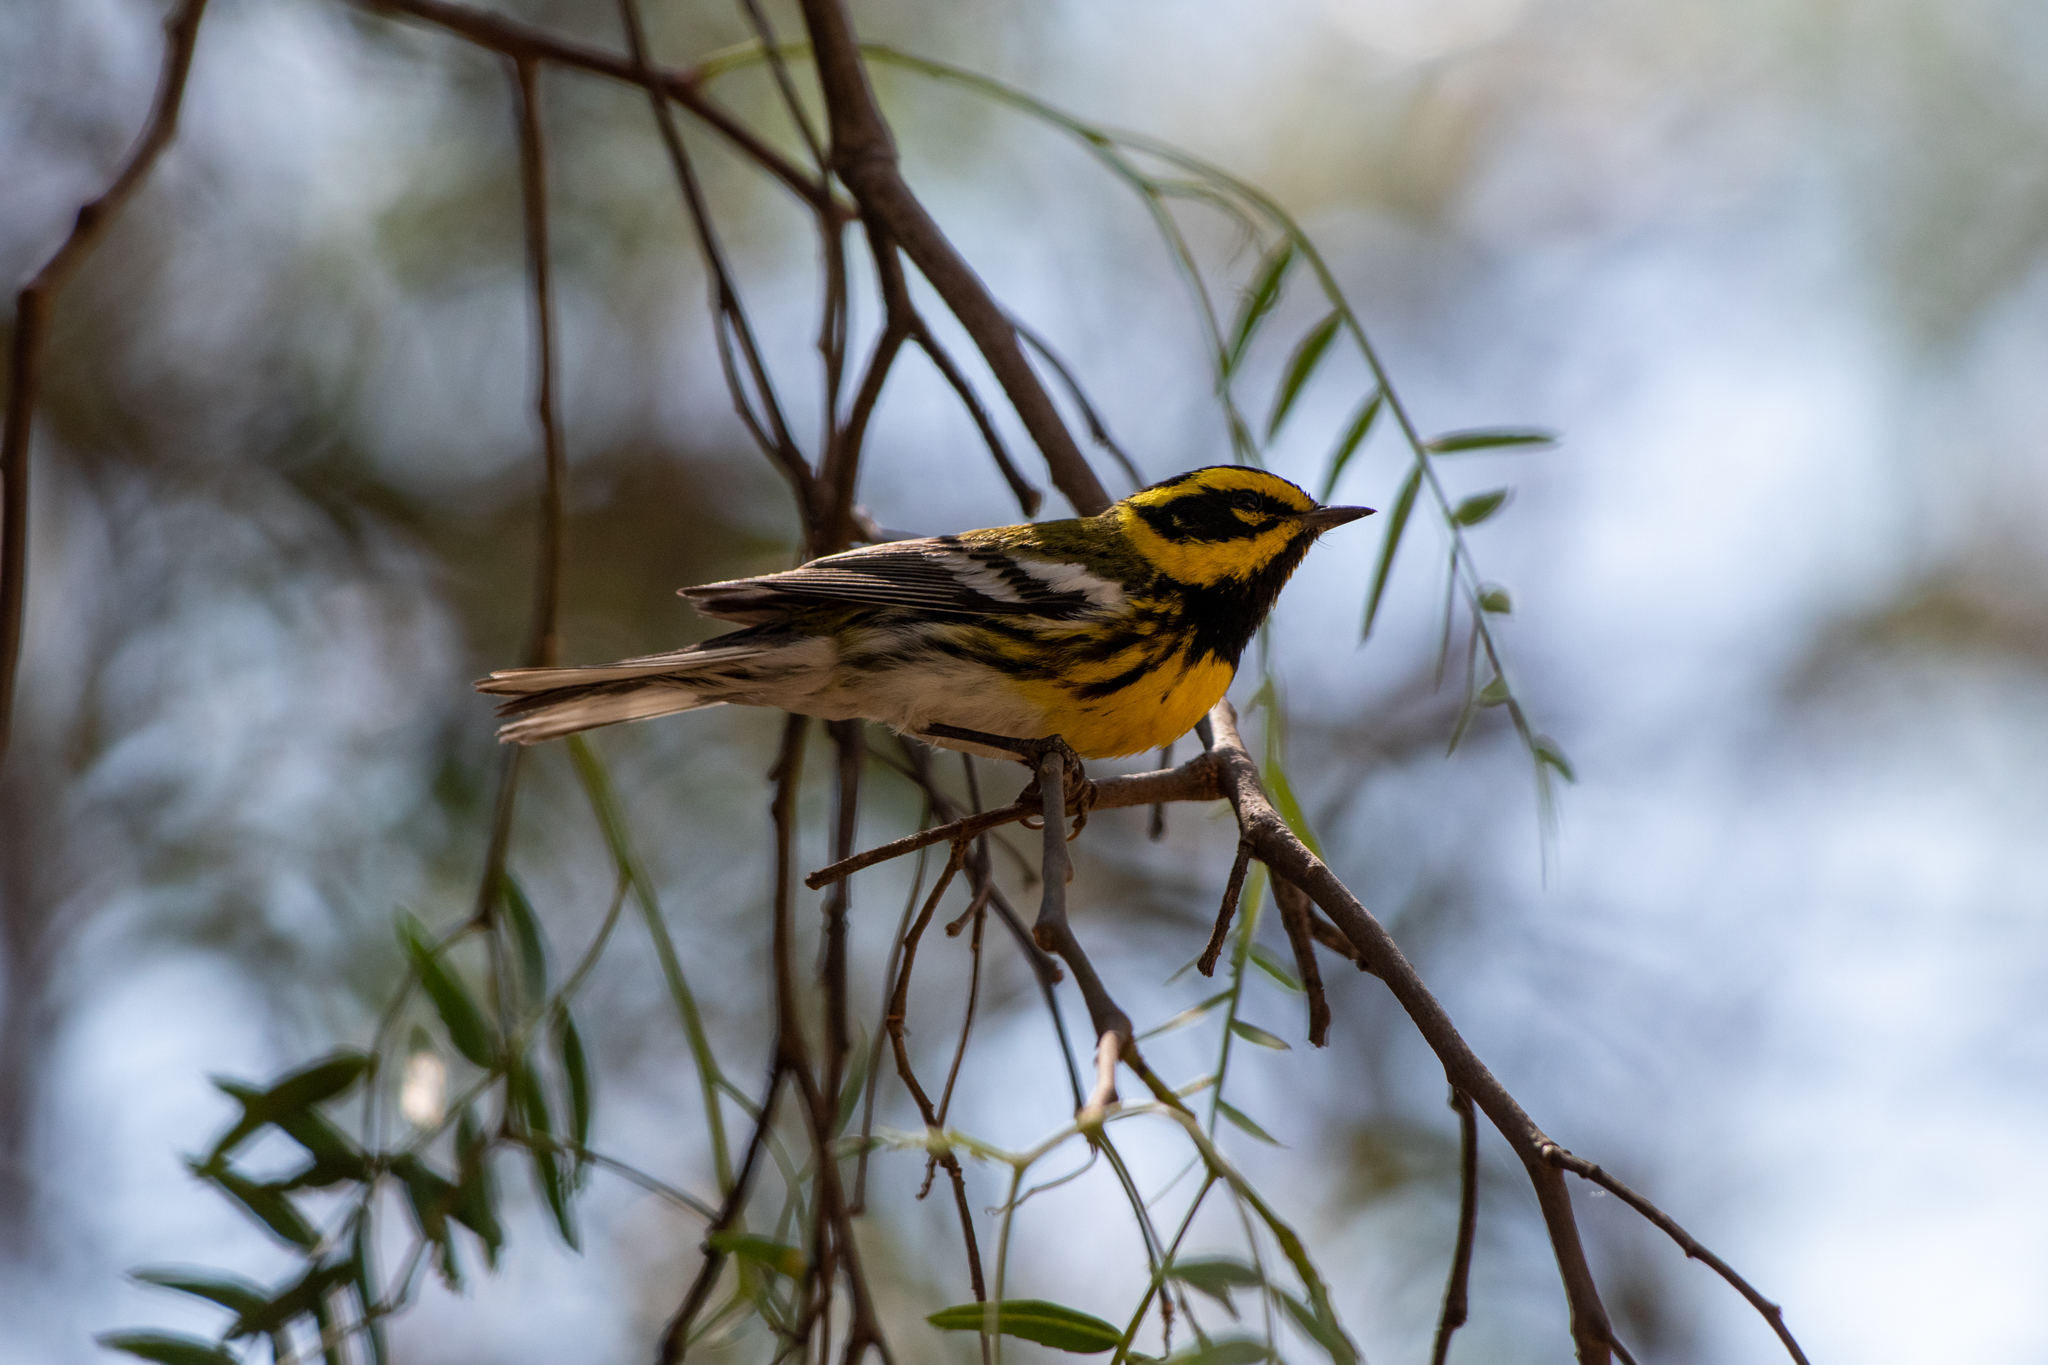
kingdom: Animalia
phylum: Chordata
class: Aves
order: Passeriformes
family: Parulidae
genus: Setophaga
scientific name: Setophaga townsendi
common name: Townsend's warbler
